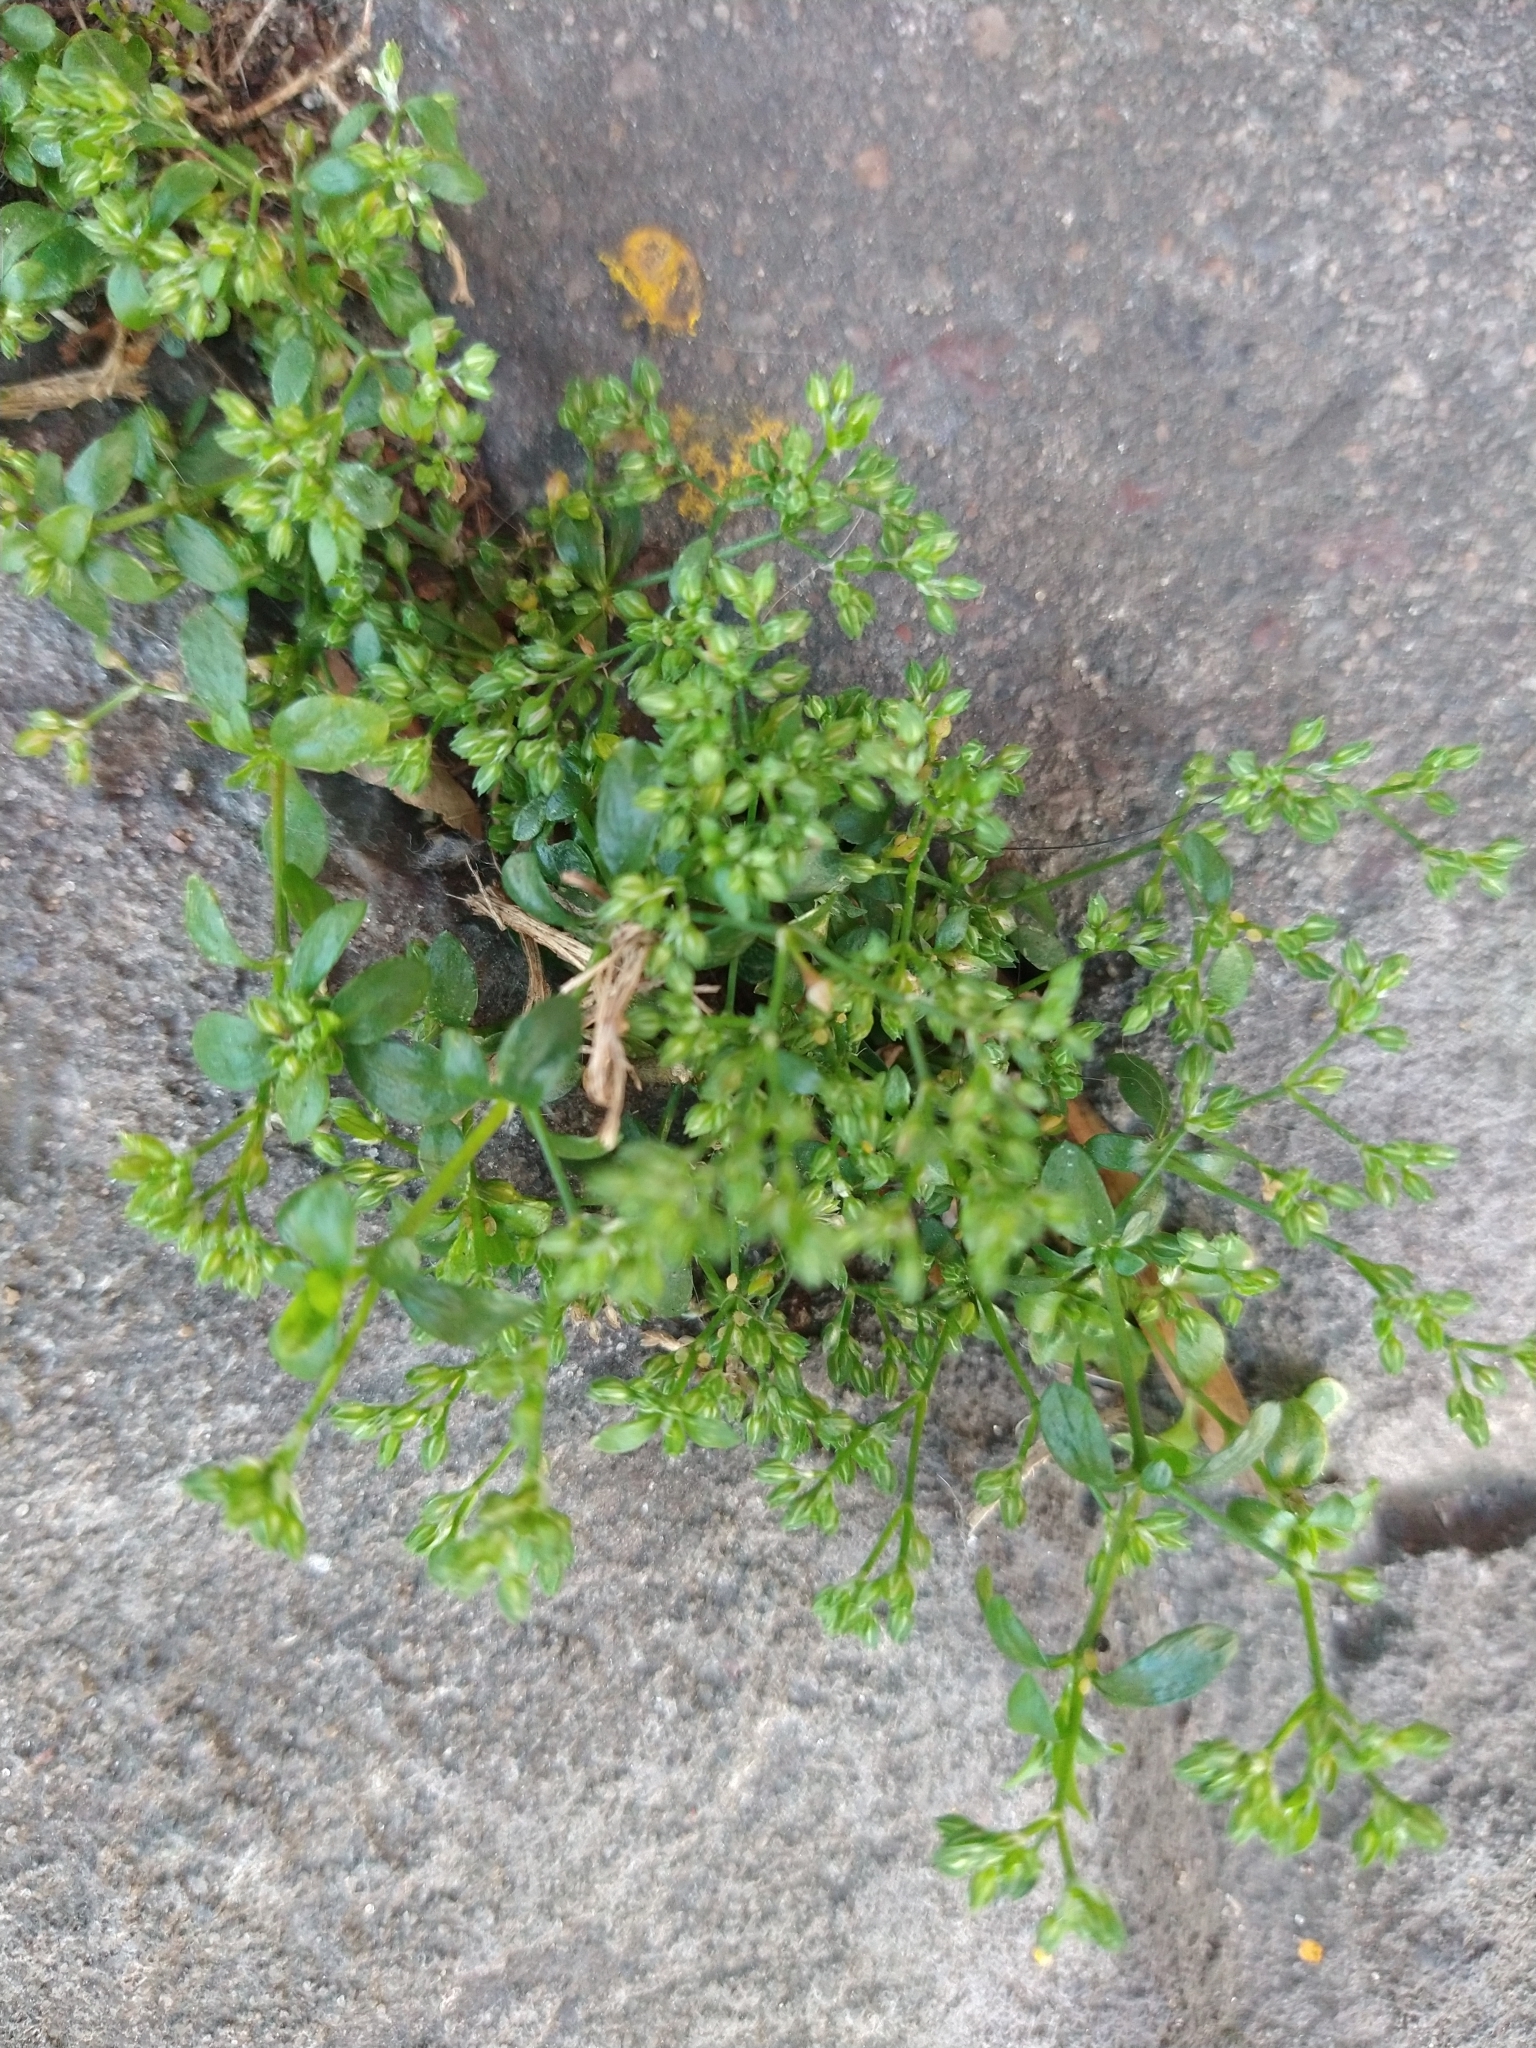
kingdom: Plantae
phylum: Tracheophyta
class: Magnoliopsida
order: Caryophyllales
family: Caryophyllaceae
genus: Polycarpon
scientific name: Polycarpon tetraphyllum
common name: Four-leaved all-seed
